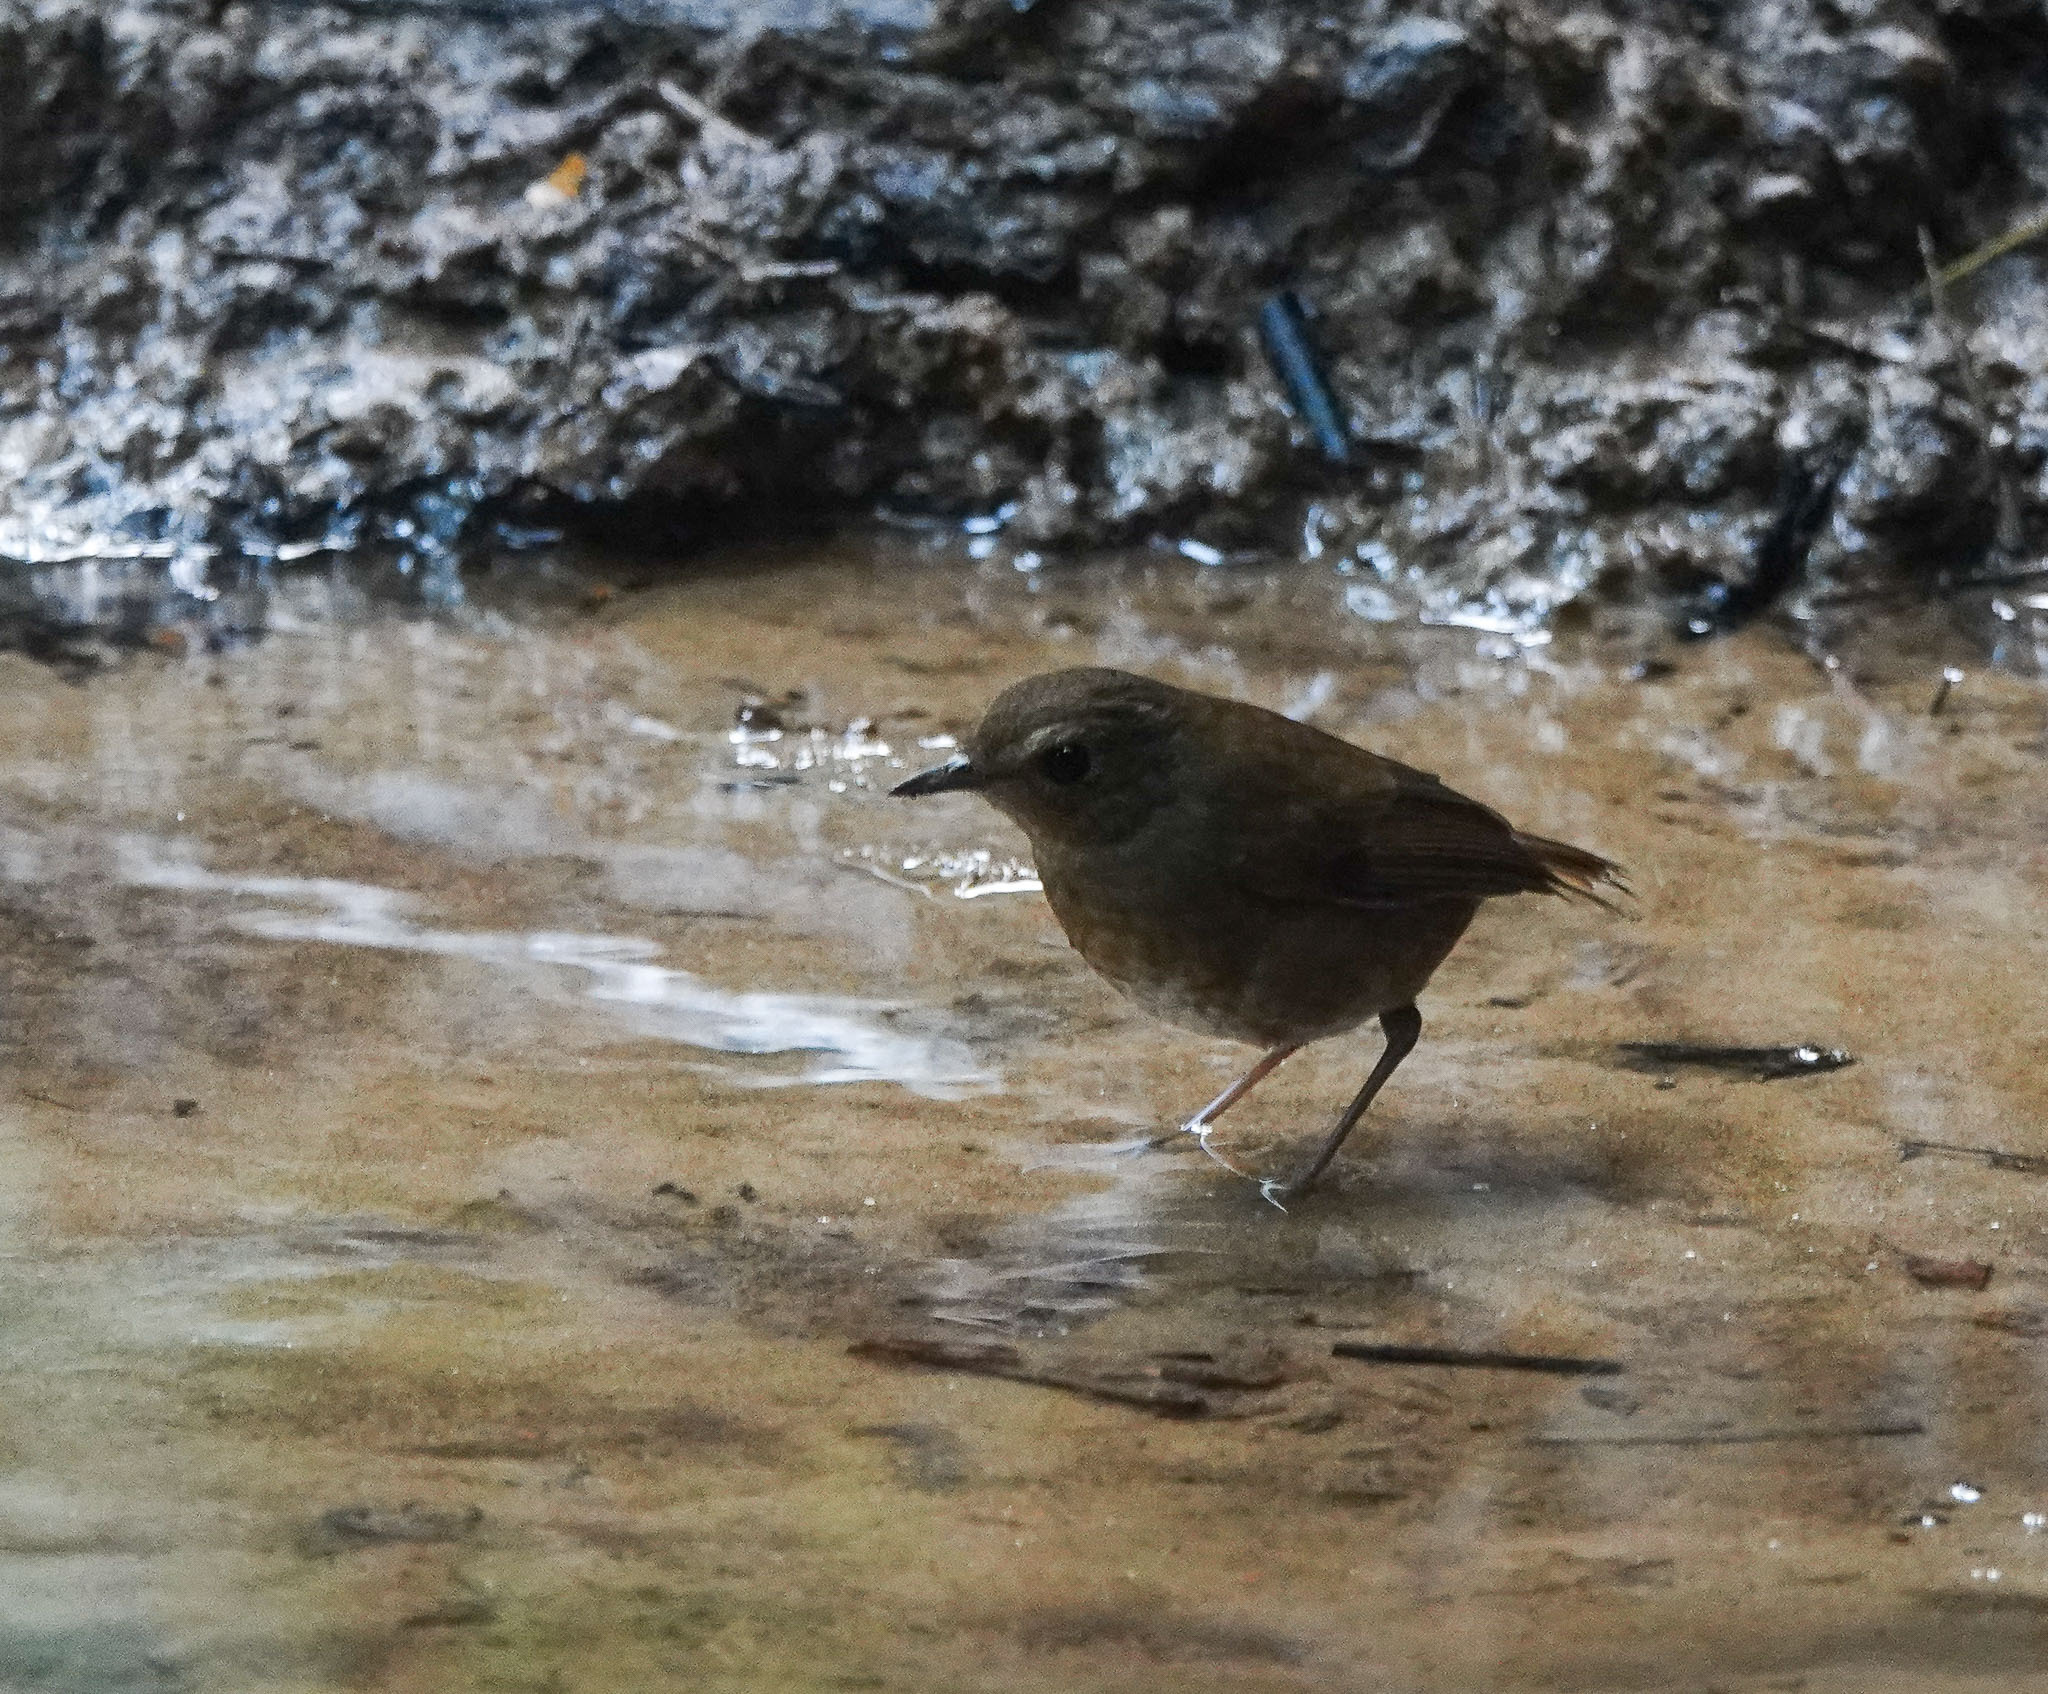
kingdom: Animalia
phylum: Chordata
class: Aves
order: Passeriformes
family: Muscicapidae
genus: Brachypteryx
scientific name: Brachypteryx leucophris
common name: Lesser shortwing
